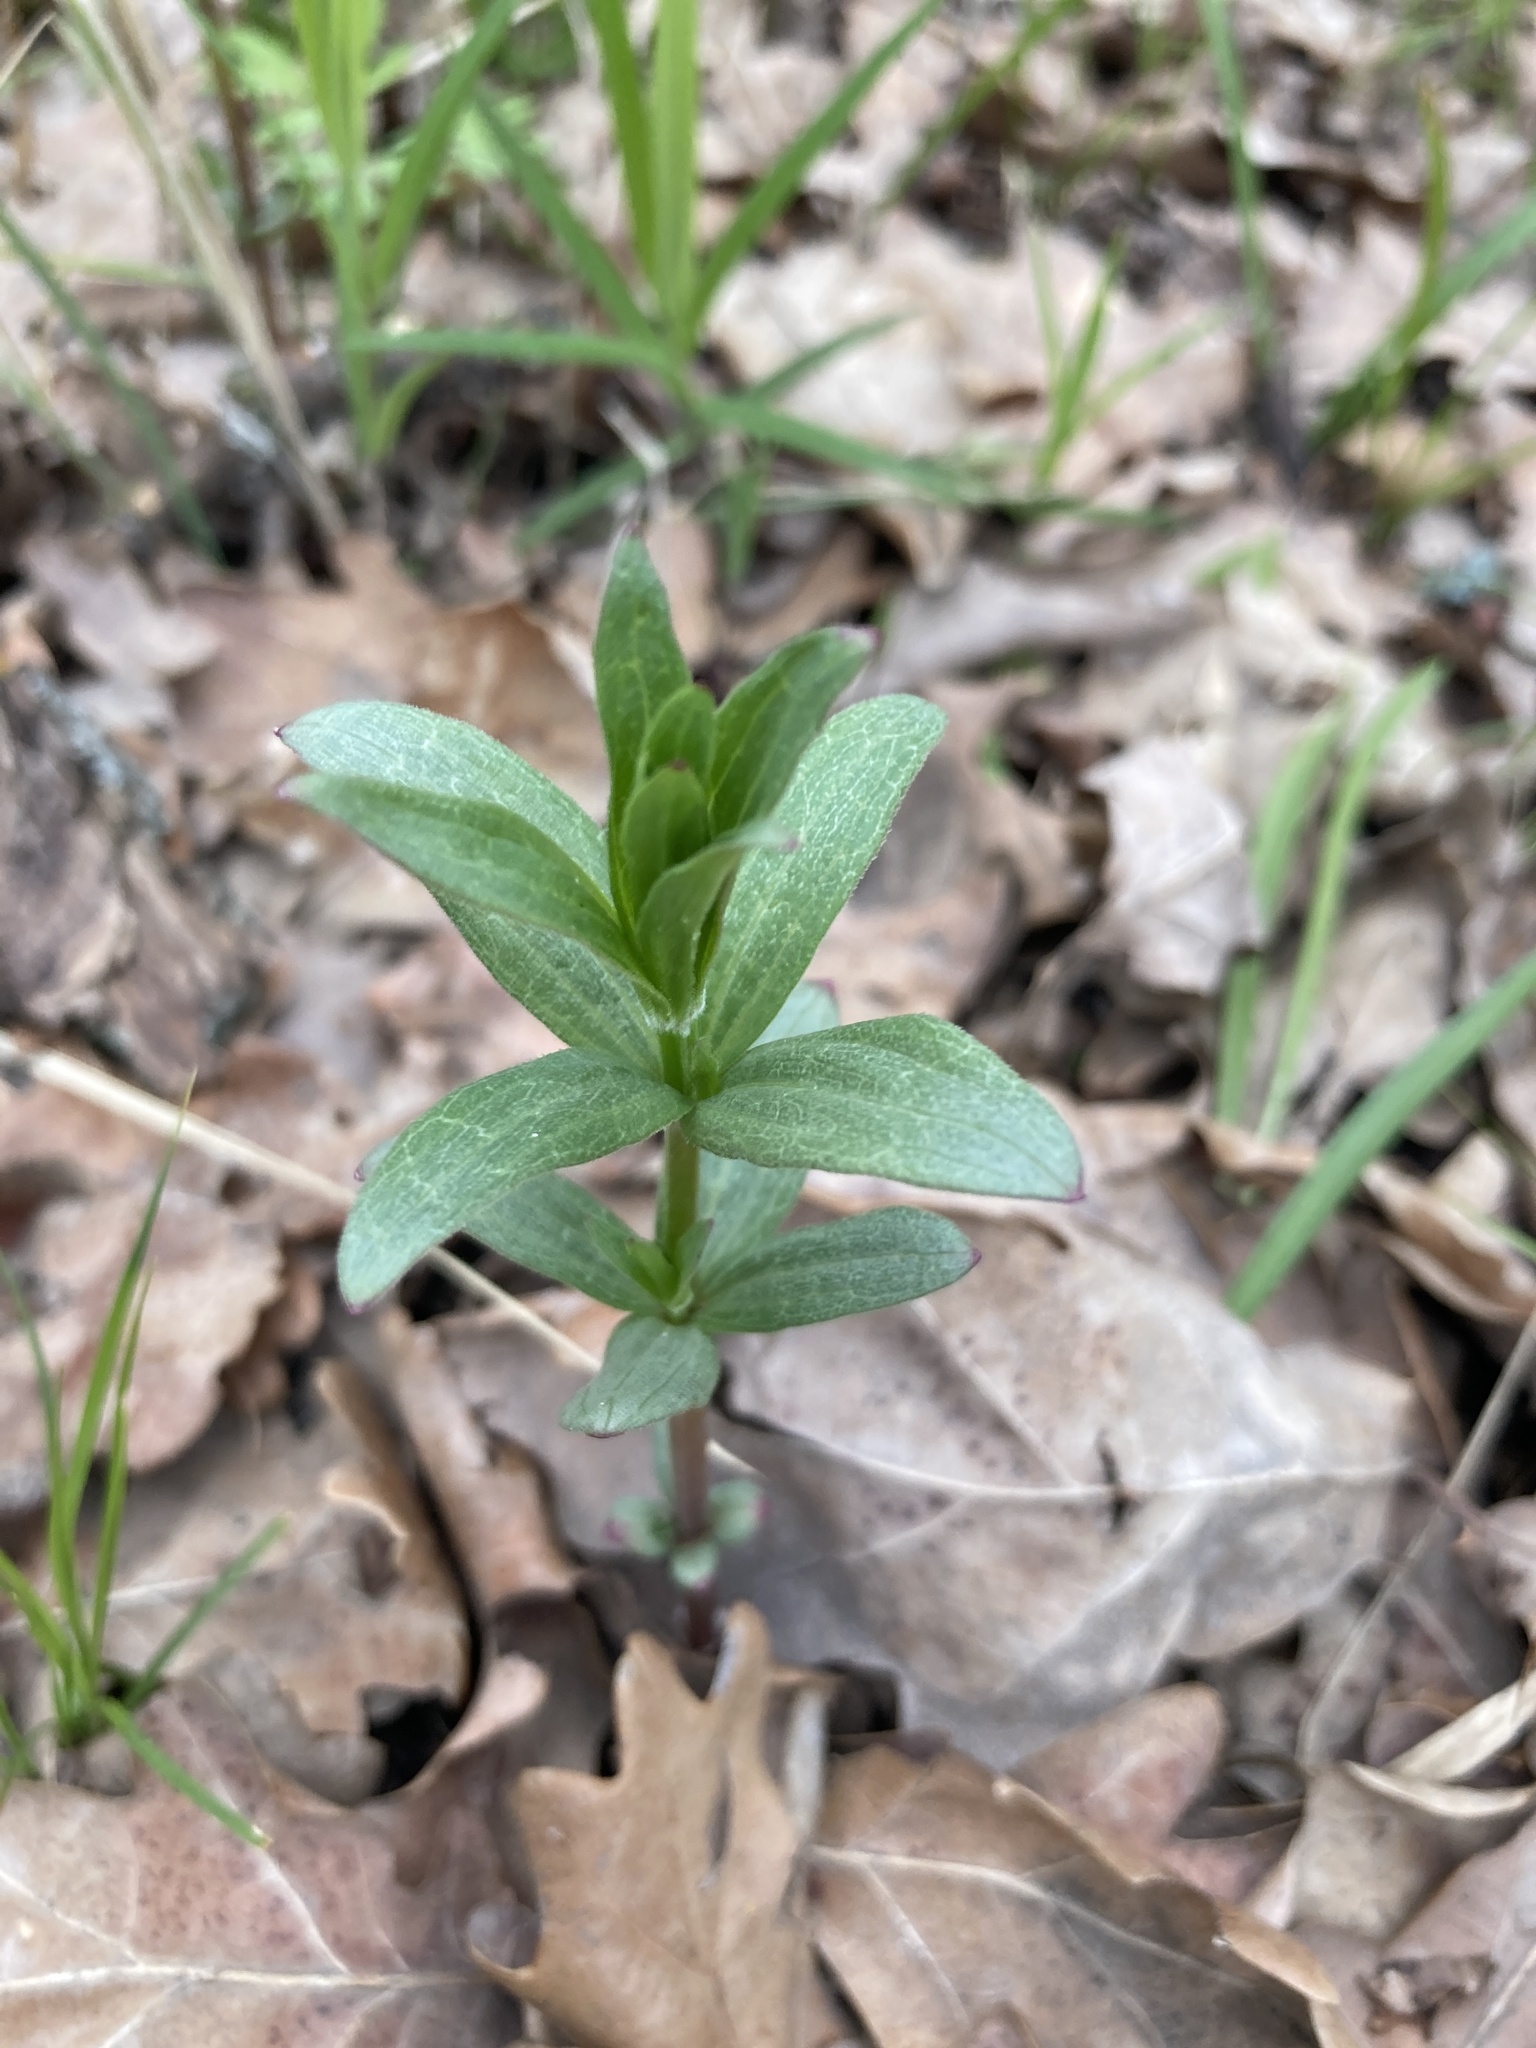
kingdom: Plantae
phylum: Tracheophyta
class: Magnoliopsida
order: Gentianales
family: Rubiaceae
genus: Galium
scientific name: Galium rubioides
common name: European bedstraw
